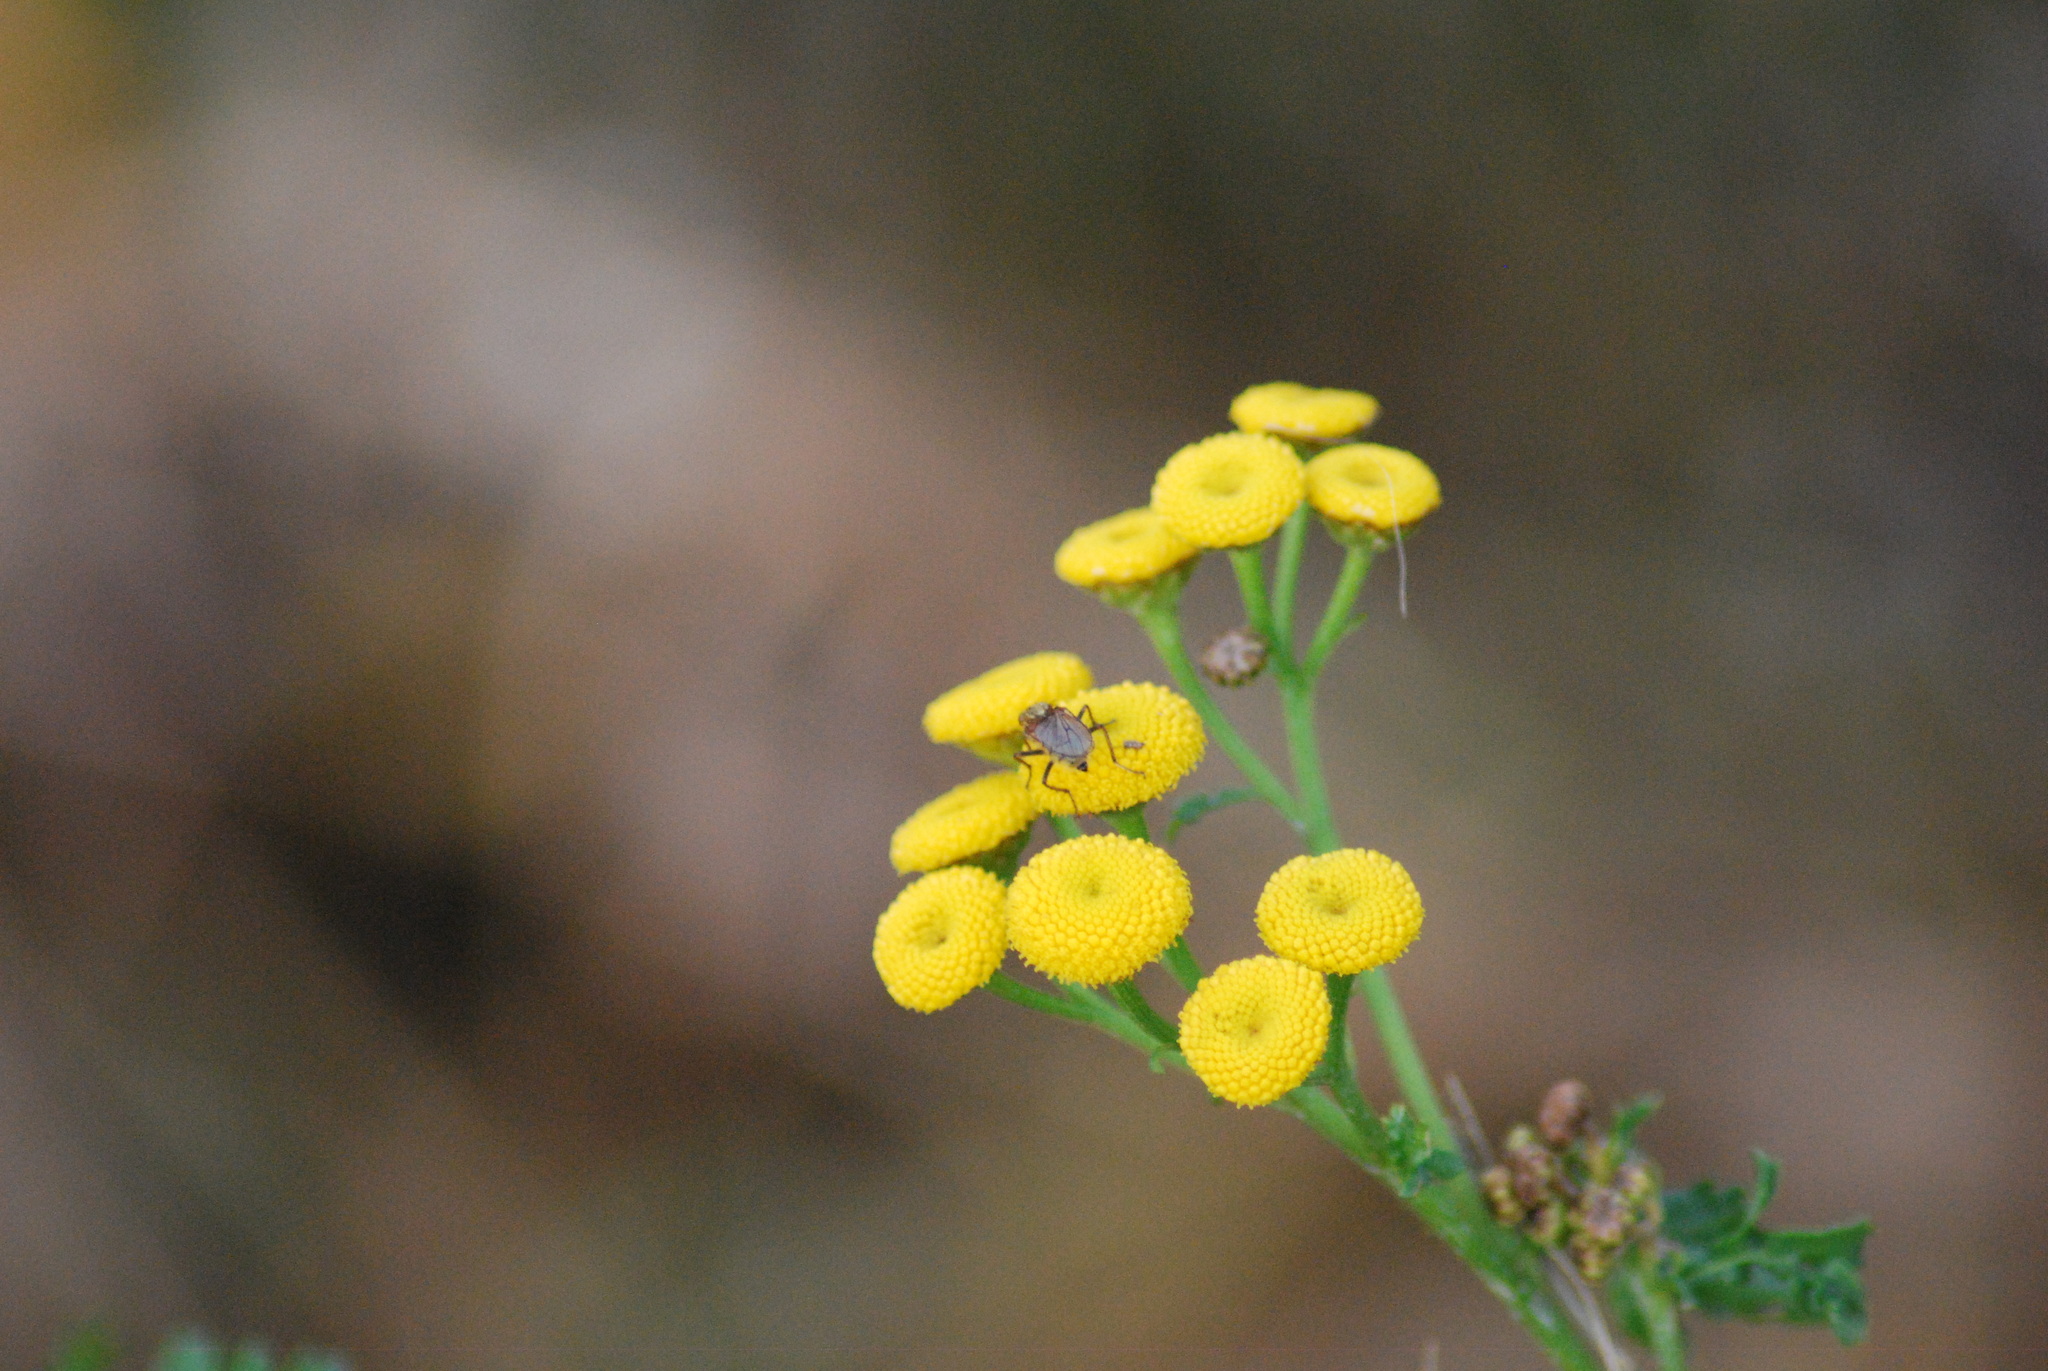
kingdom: Plantae
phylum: Tracheophyta
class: Magnoliopsida
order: Asterales
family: Asteraceae
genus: Tanacetum
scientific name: Tanacetum vulgare
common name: Common tansy
